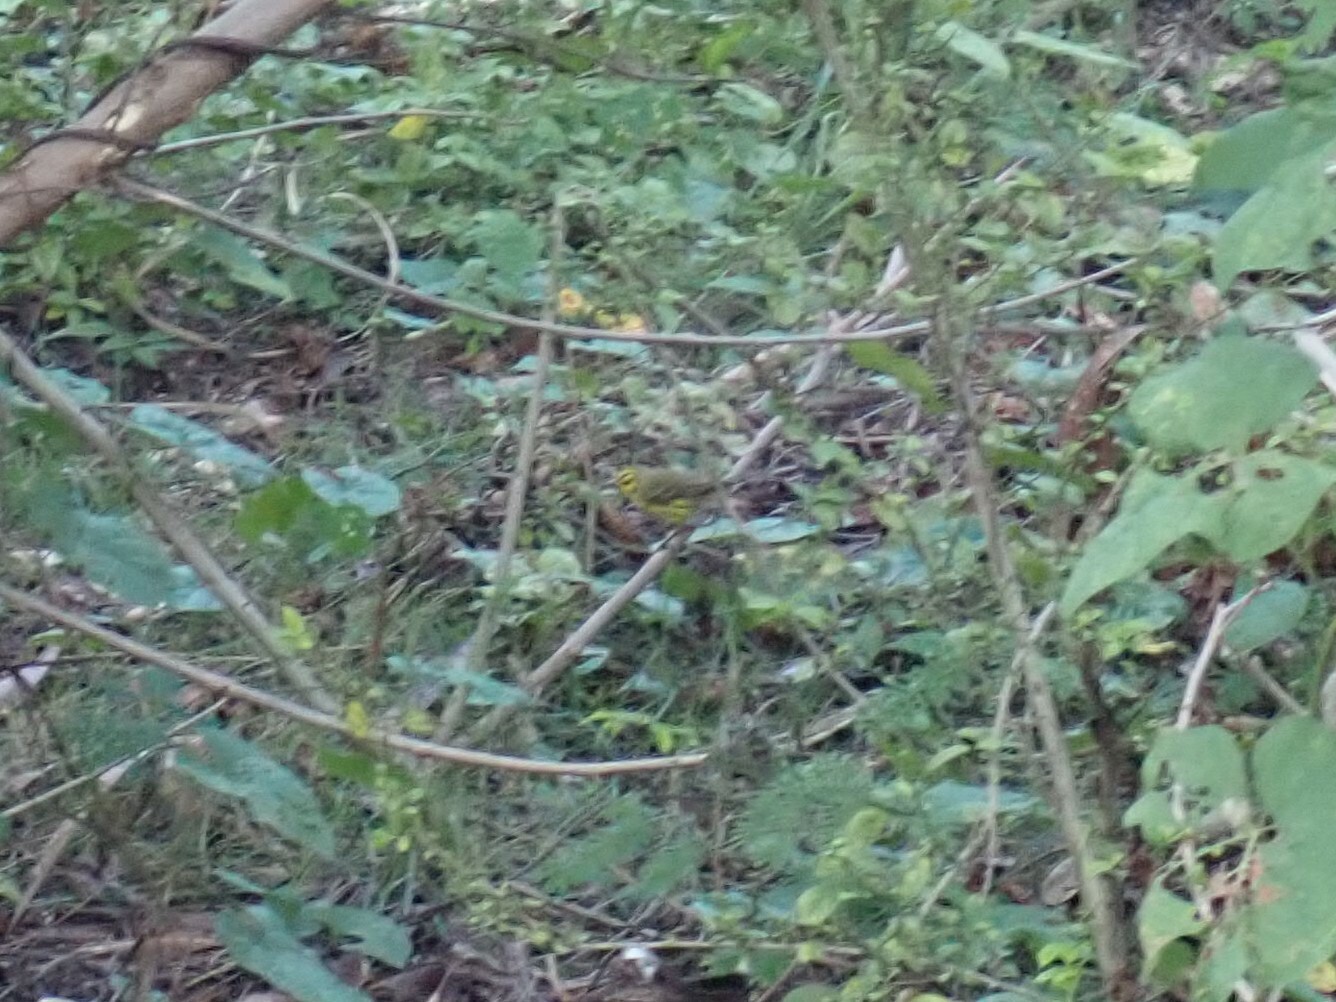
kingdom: Animalia
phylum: Chordata
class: Aves
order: Passeriformes
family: Parulidae
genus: Setophaga
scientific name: Setophaga discolor
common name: Prairie warbler
